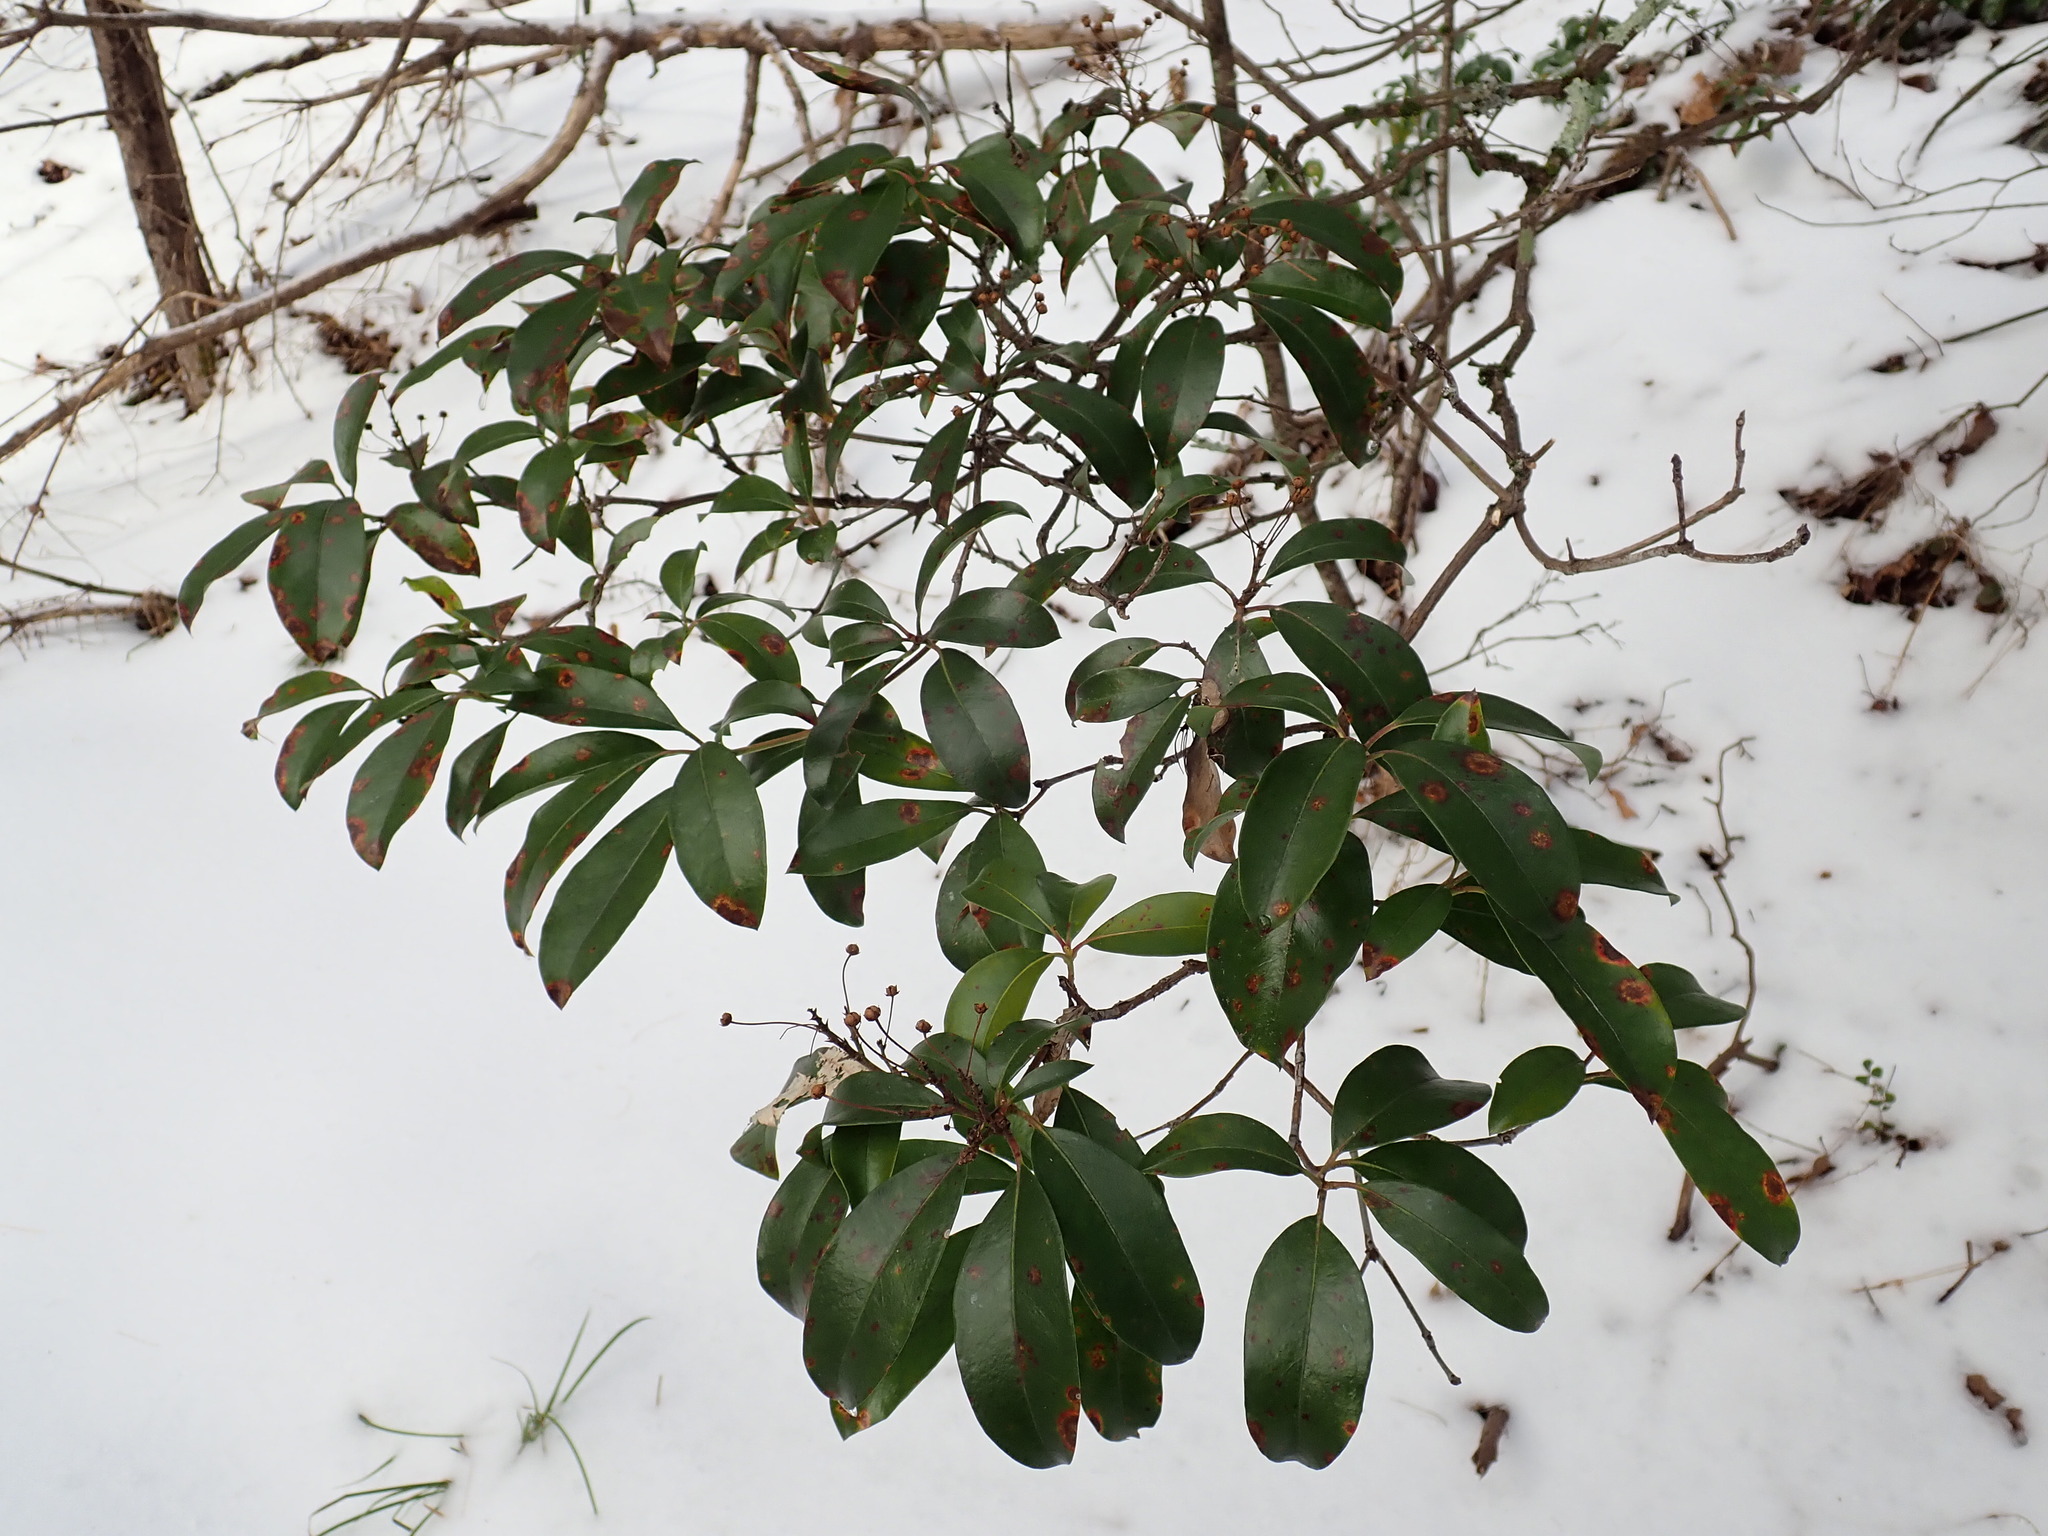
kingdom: Plantae
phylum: Tracheophyta
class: Magnoliopsida
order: Ericales
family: Ericaceae
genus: Kalmia
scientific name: Kalmia latifolia
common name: Mountain-laurel
